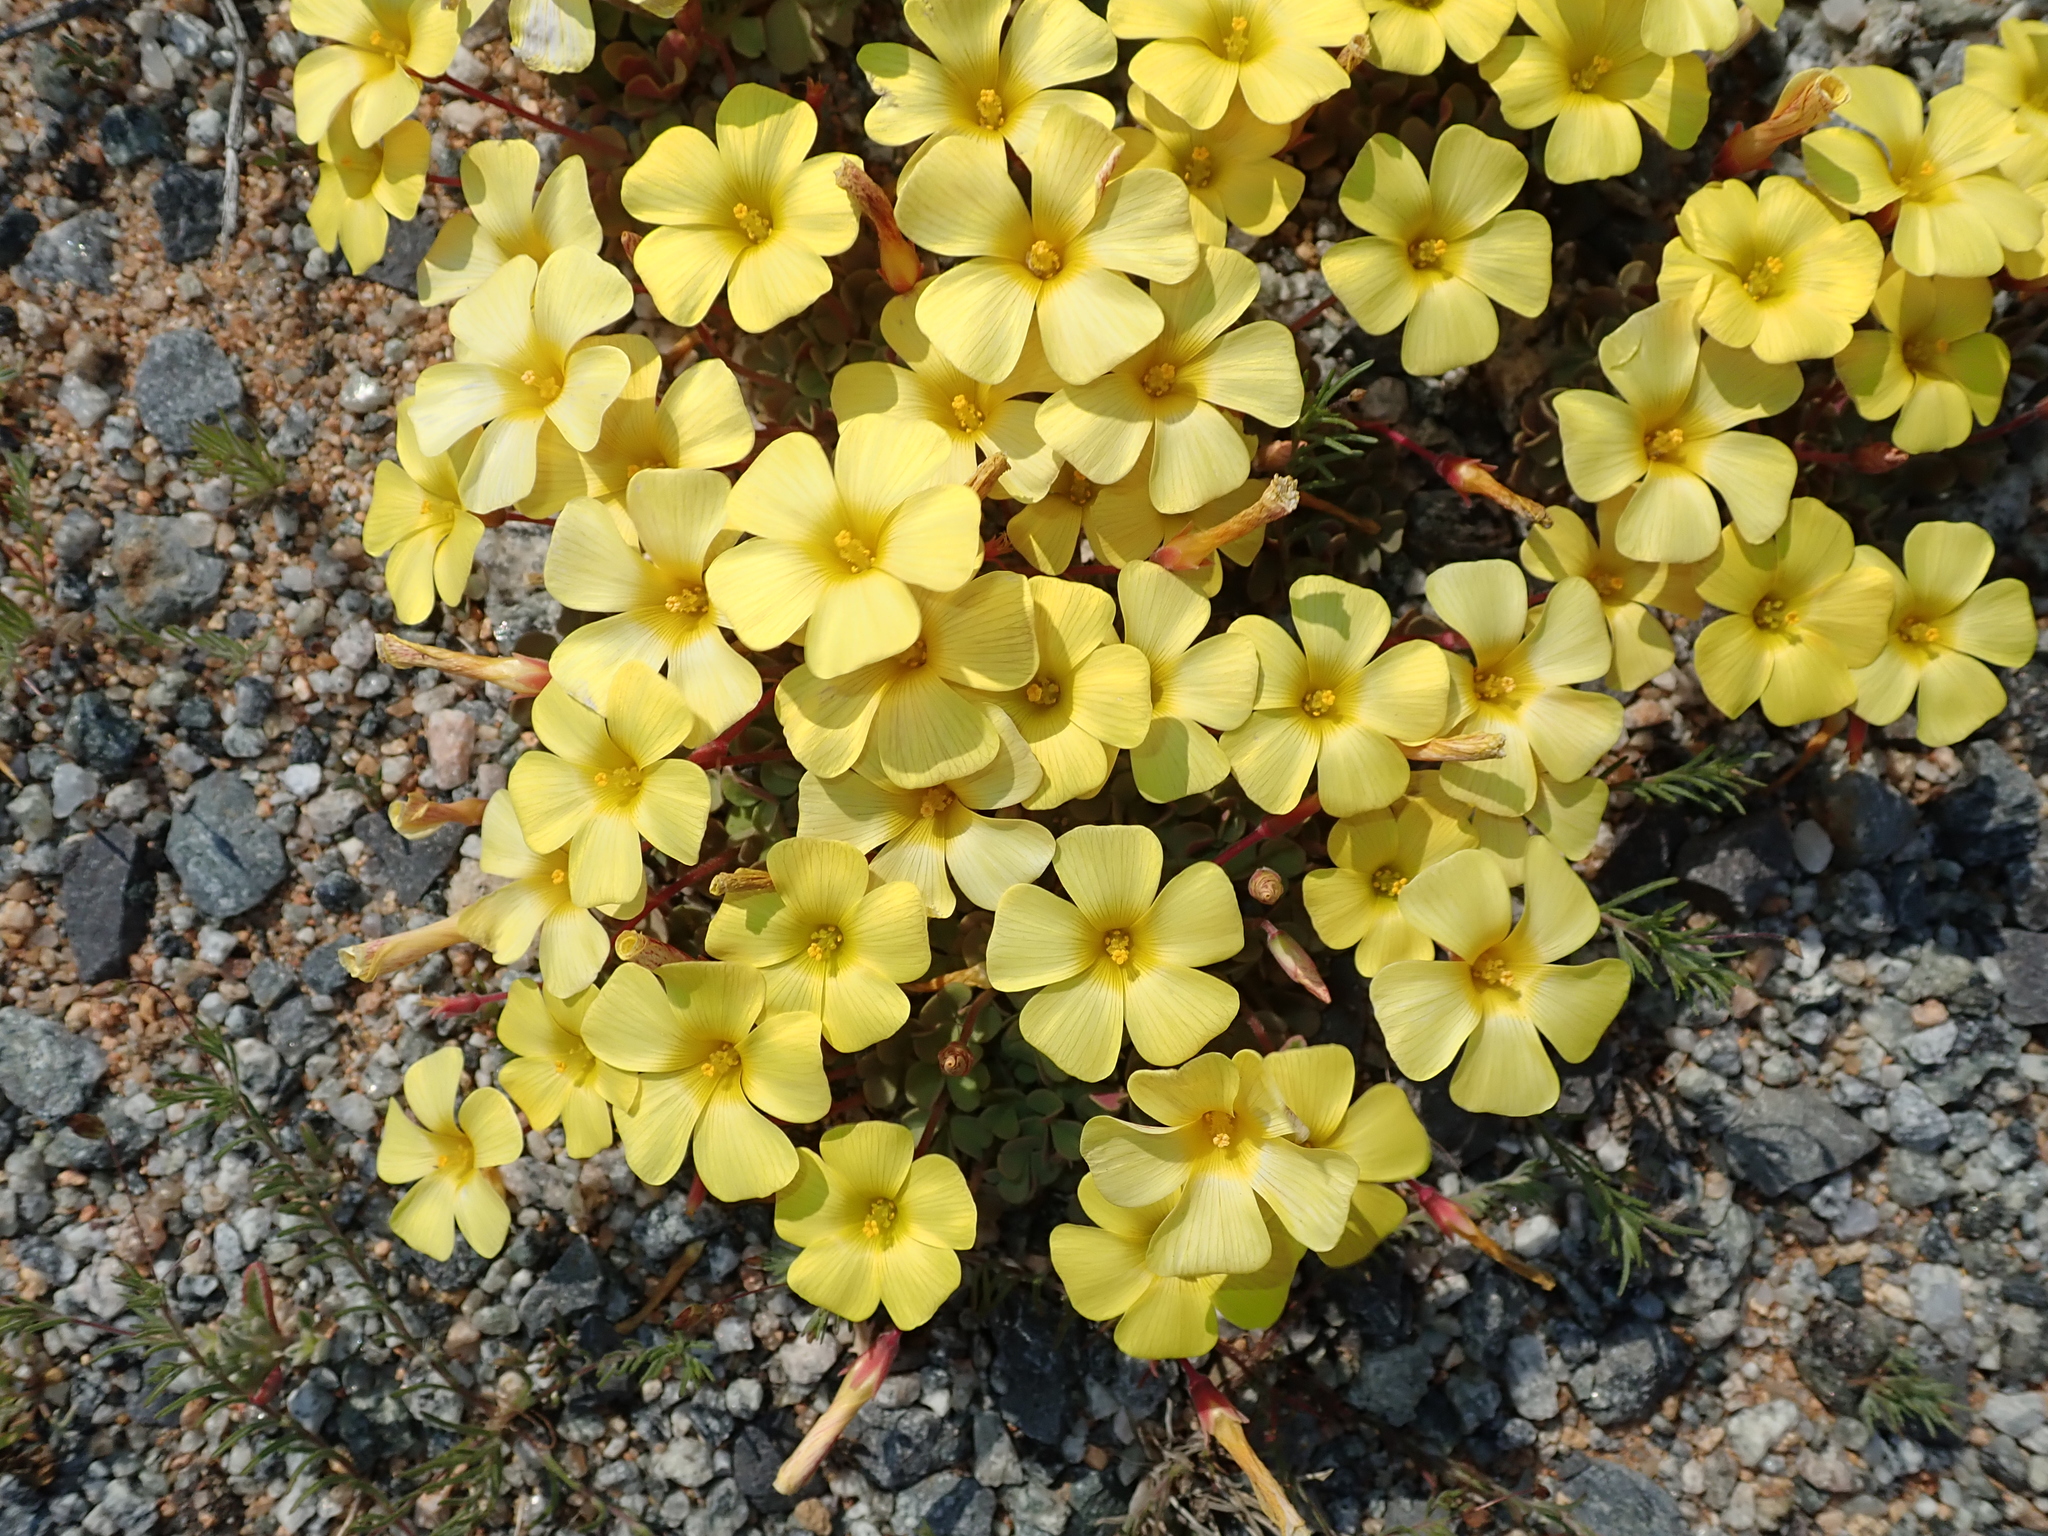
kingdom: Plantae
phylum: Tracheophyta
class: Magnoliopsida
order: Oxalidales
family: Oxalidaceae
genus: Oxalis
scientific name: Oxalis obtusa
